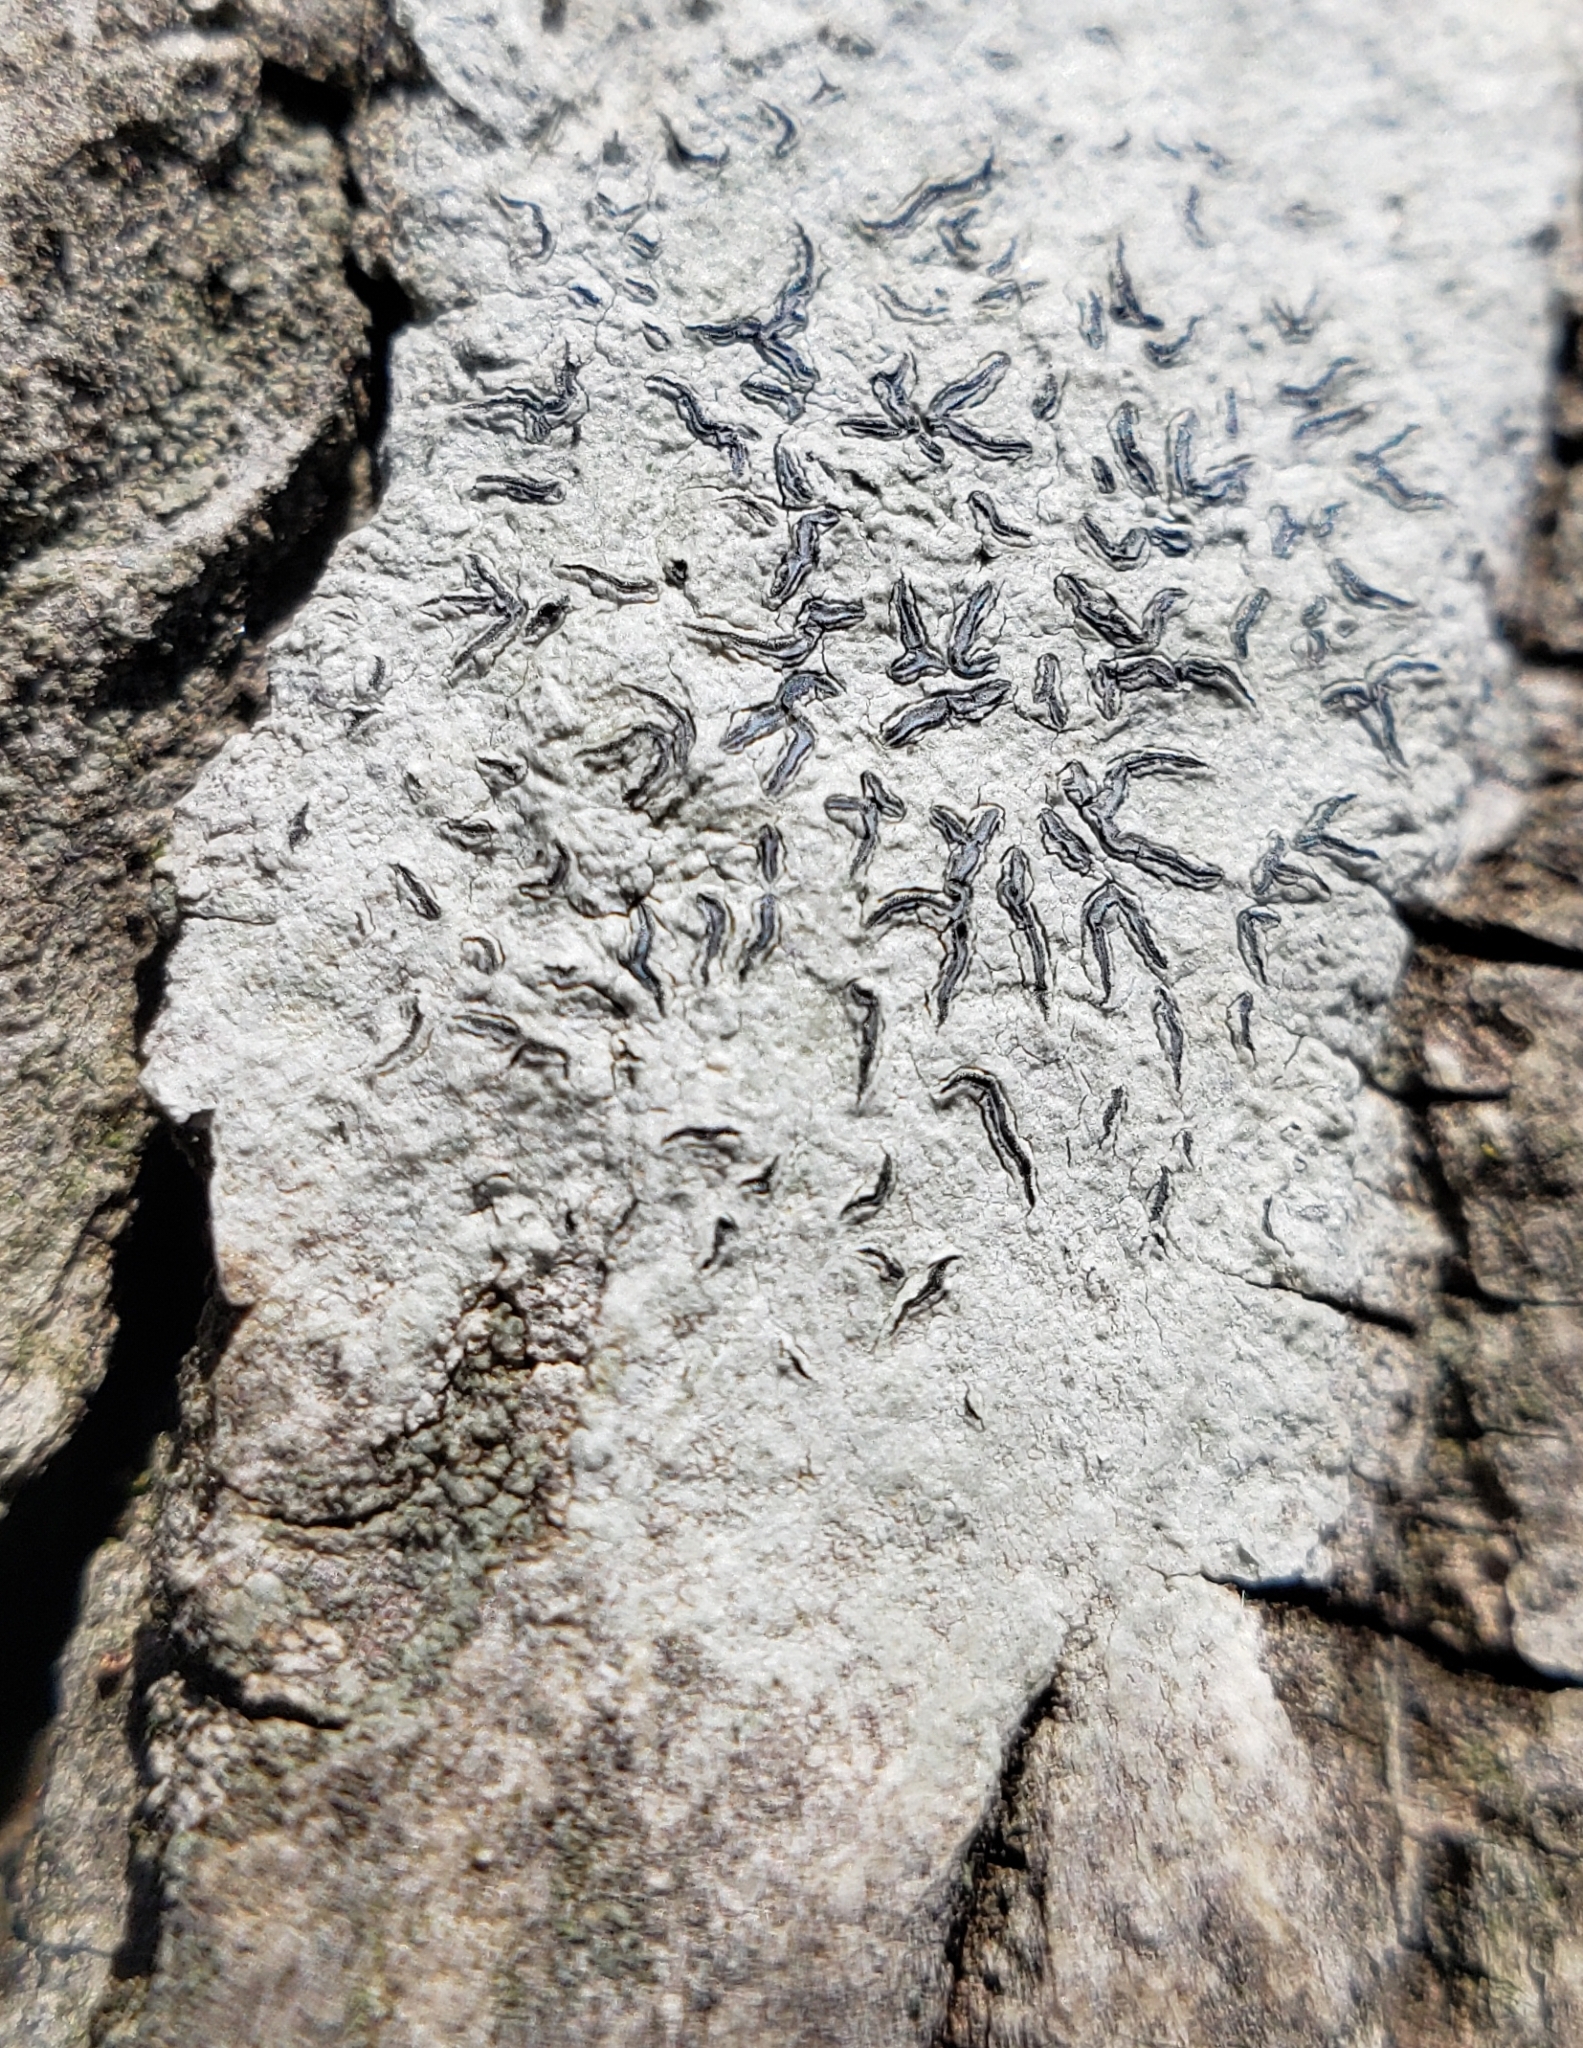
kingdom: Fungi
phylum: Ascomycota
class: Lecanoromycetes
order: Ostropales
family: Graphidaceae
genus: Graphis
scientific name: Graphis scripta
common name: Script lichen
